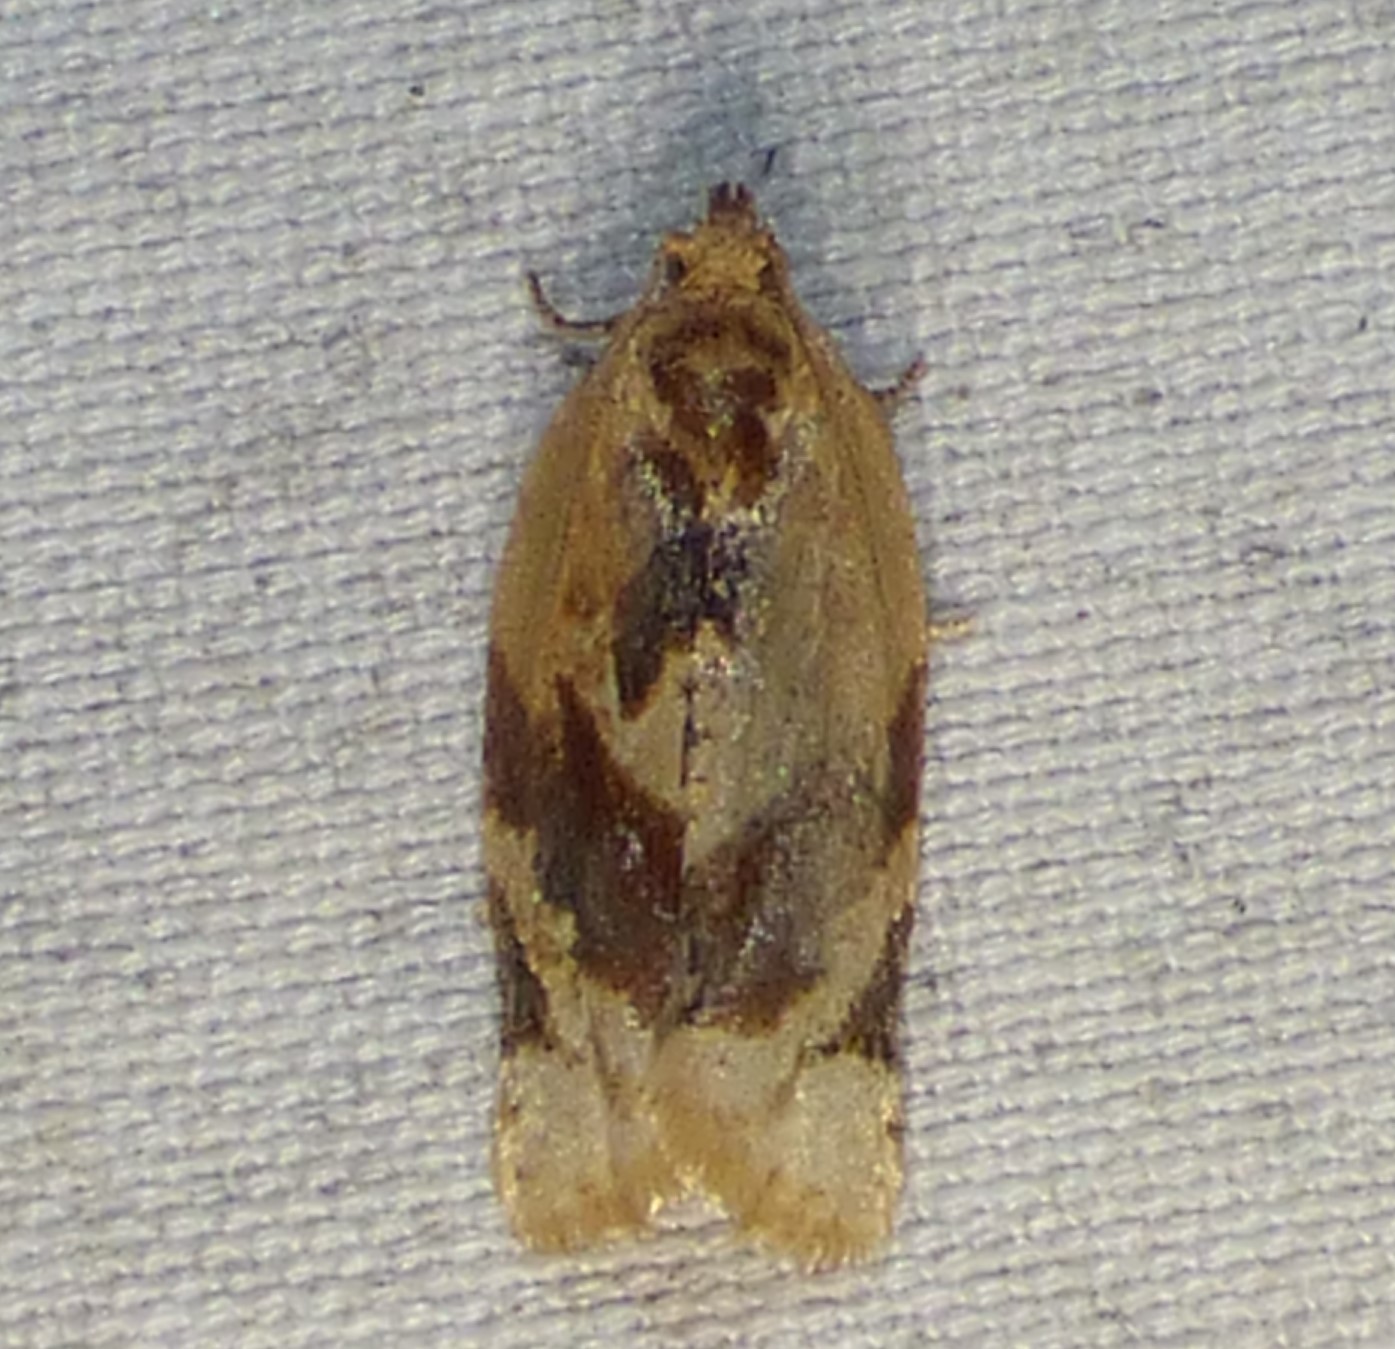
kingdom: Animalia
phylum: Arthropoda
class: Insecta
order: Lepidoptera
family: Tortricidae
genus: Argyrotaenia
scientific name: Argyrotaenia velutinana
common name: Red-banded leafroller moth
